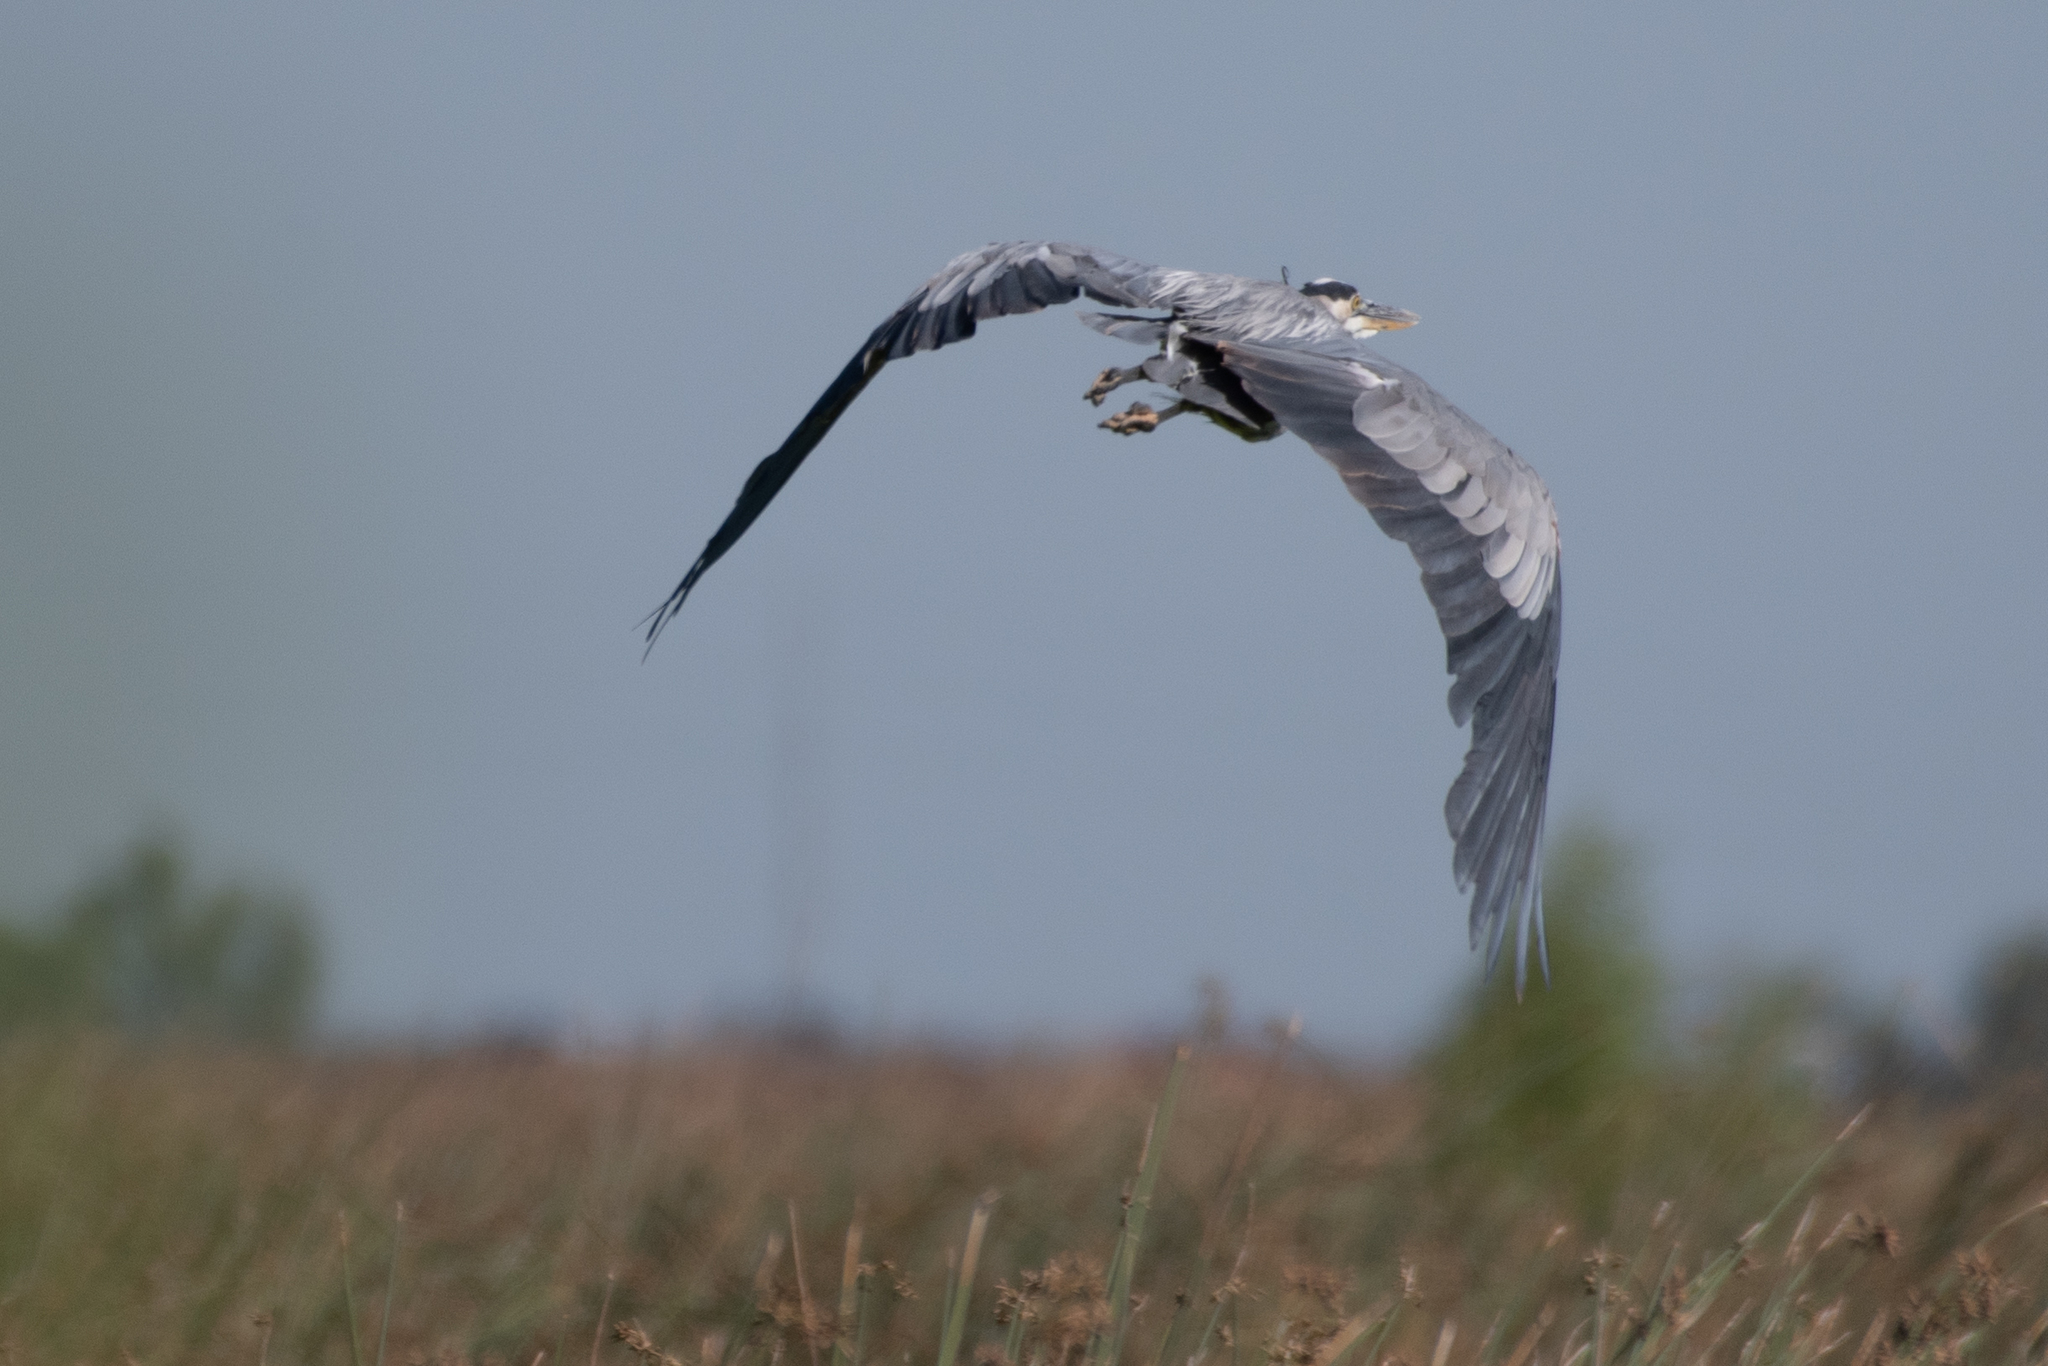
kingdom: Animalia
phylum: Chordata
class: Aves
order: Pelecaniformes
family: Ardeidae
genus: Ardea
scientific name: Ardea herodias
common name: Great blue heron
